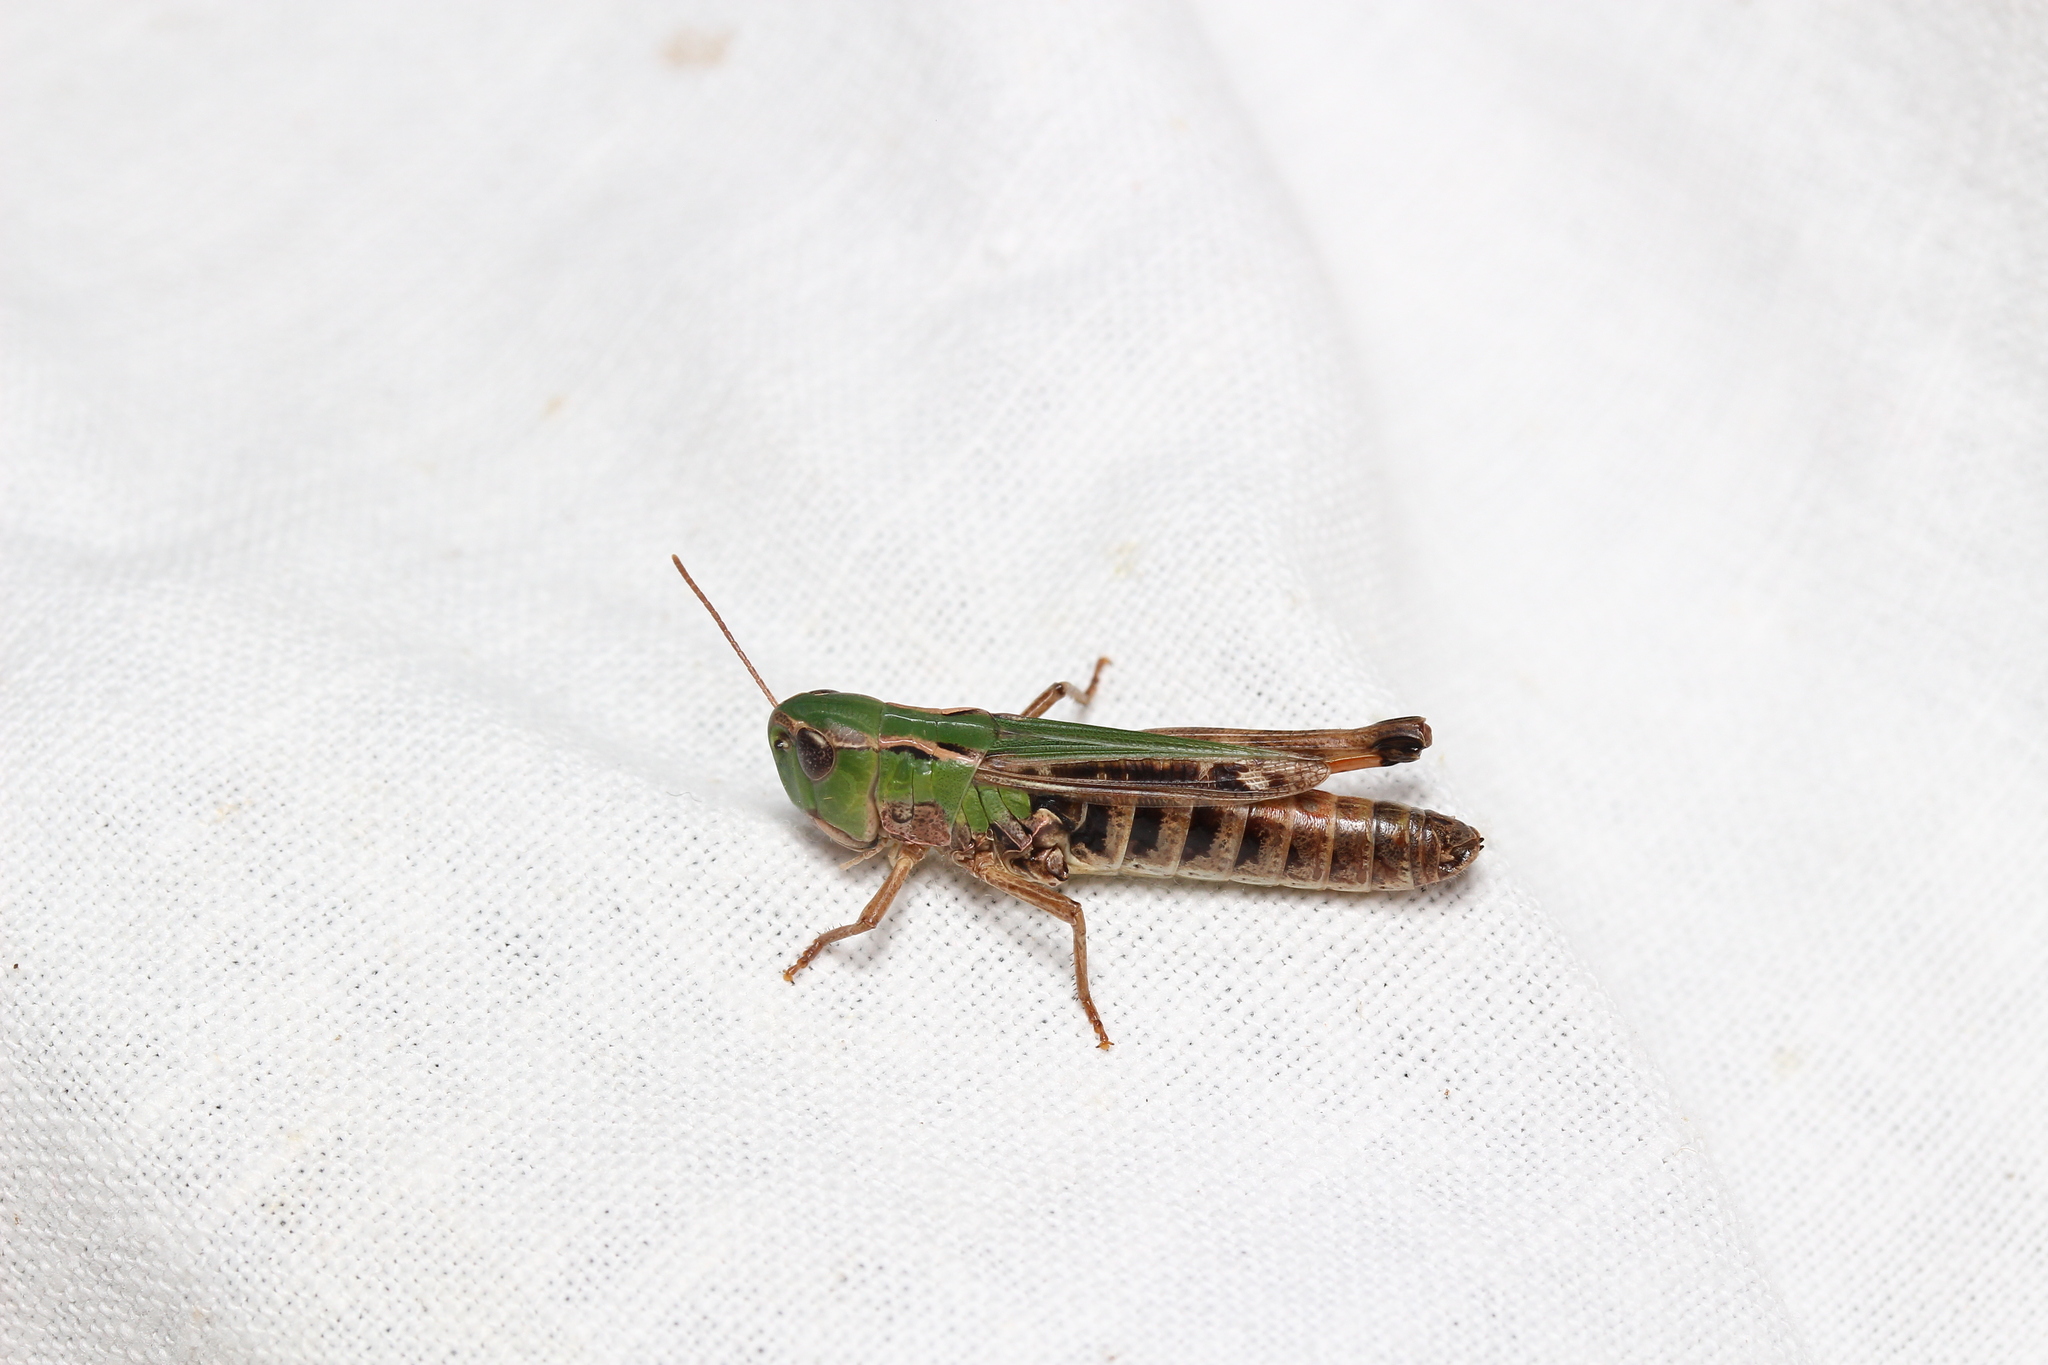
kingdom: Animalia
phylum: Arthropoda
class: Insecta
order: Orthoptera
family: Acrididae
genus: Stenobothrus
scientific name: Stenobothrus nigromaculatus
